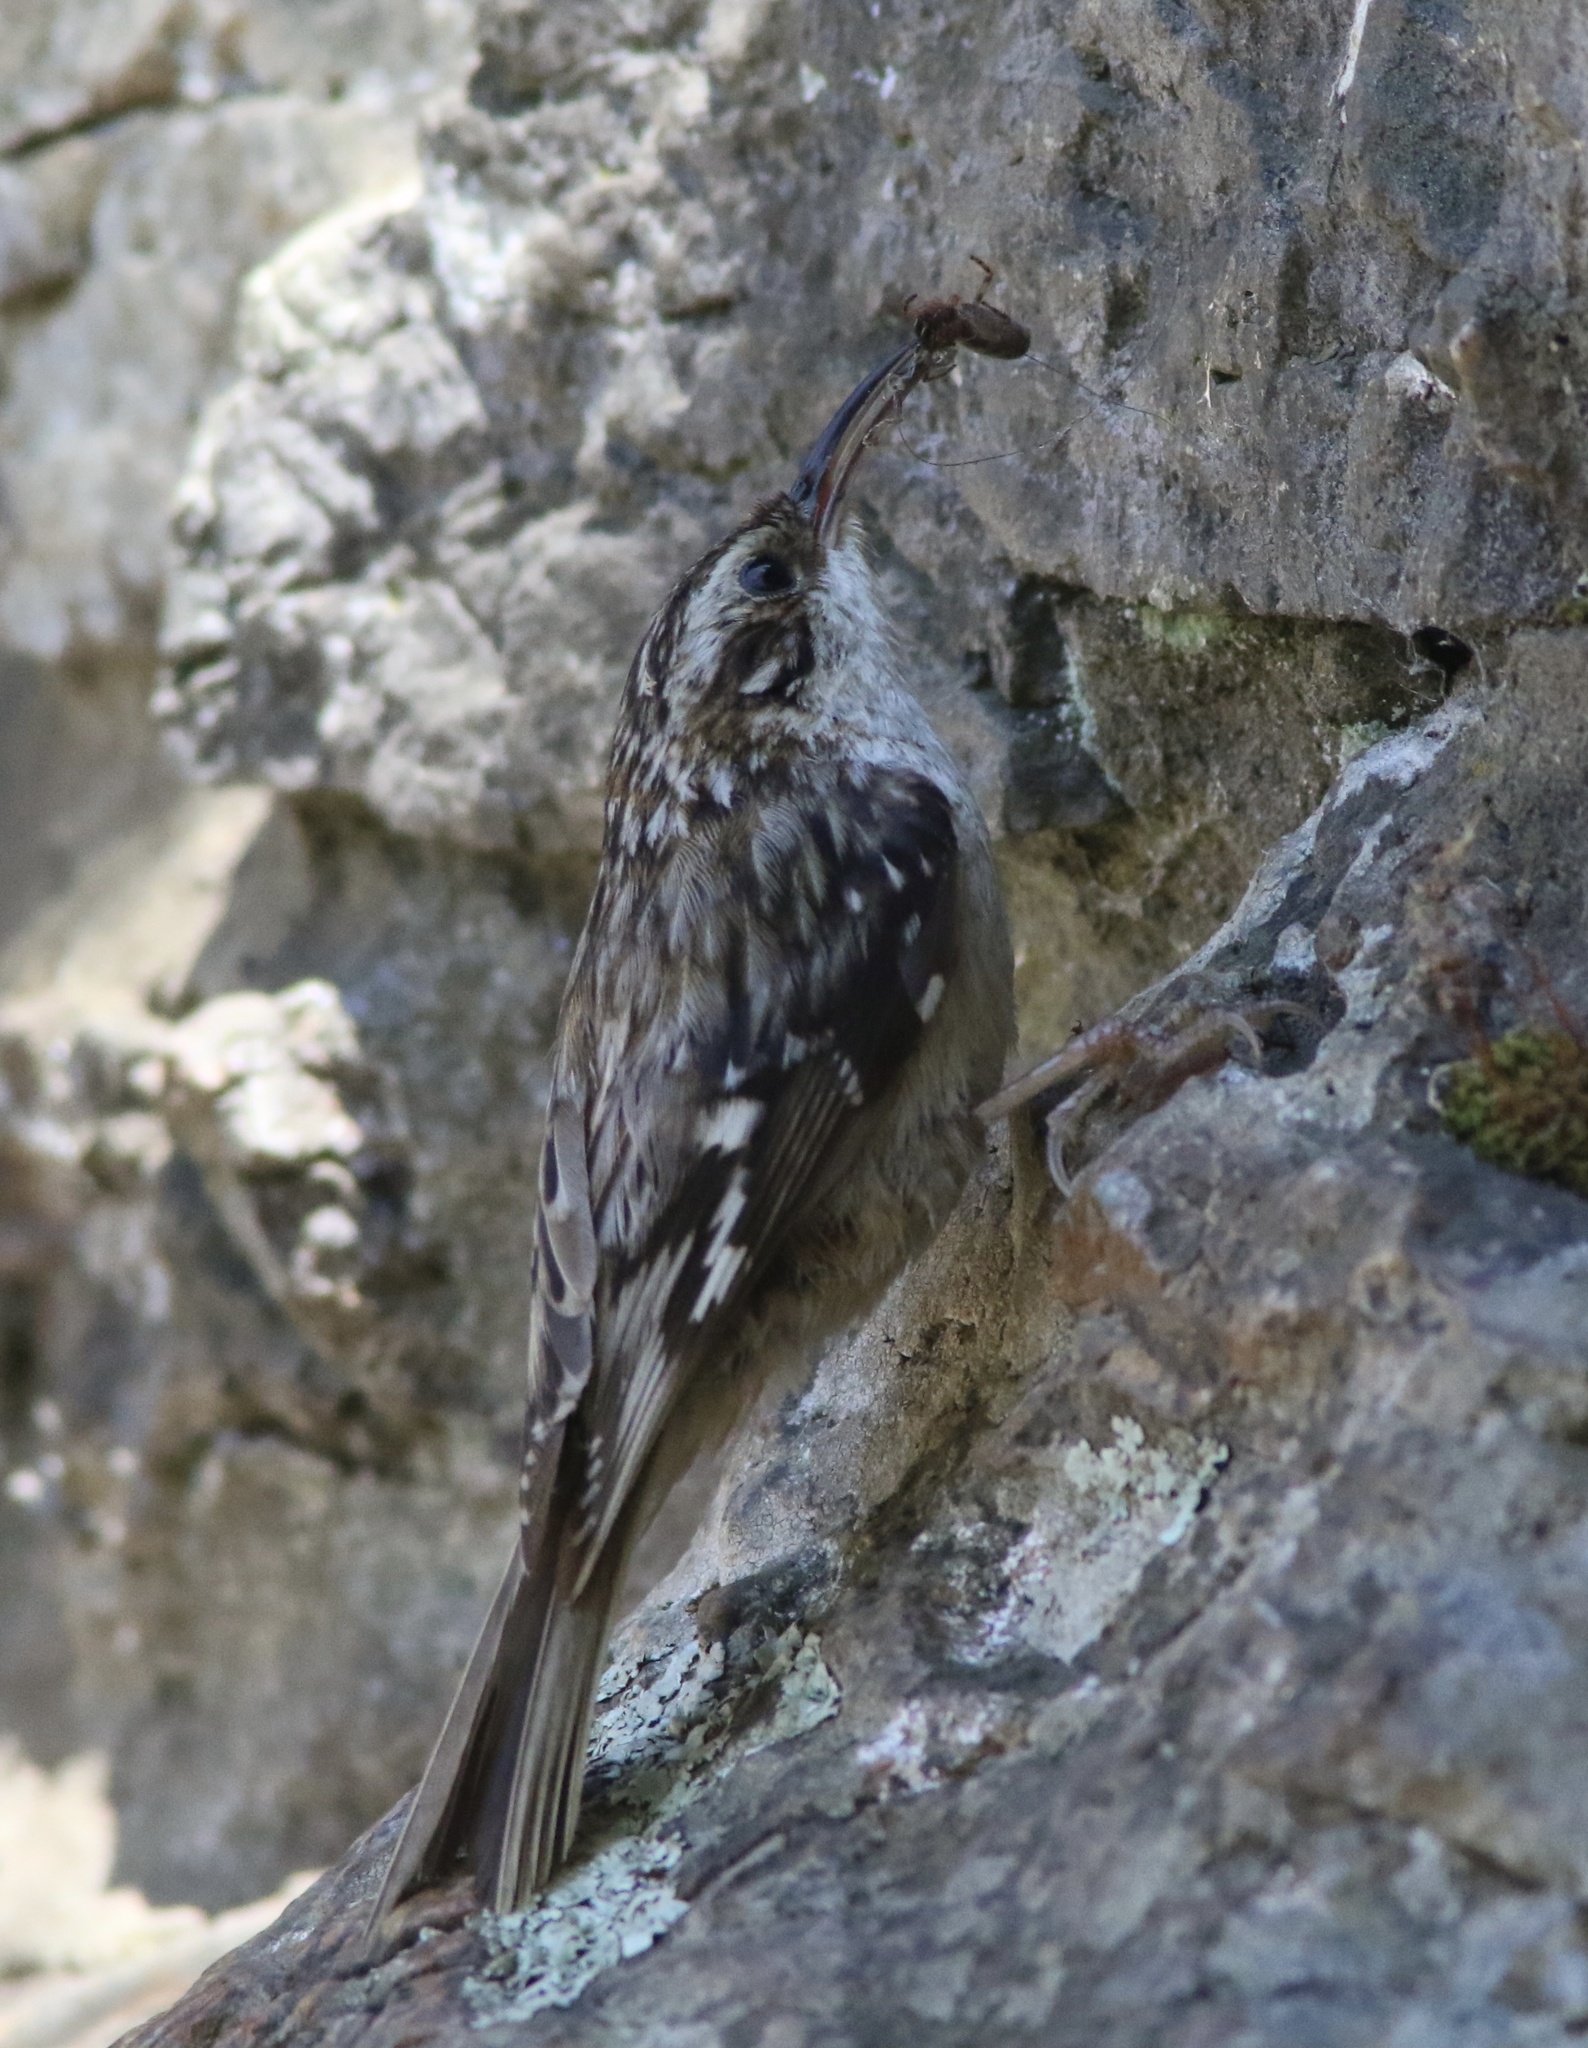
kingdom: Animalia
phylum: Chordata
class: Aves
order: Passeriformes
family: Certhiidae
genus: Certhia
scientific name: Certhia americana
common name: Brown creeper
